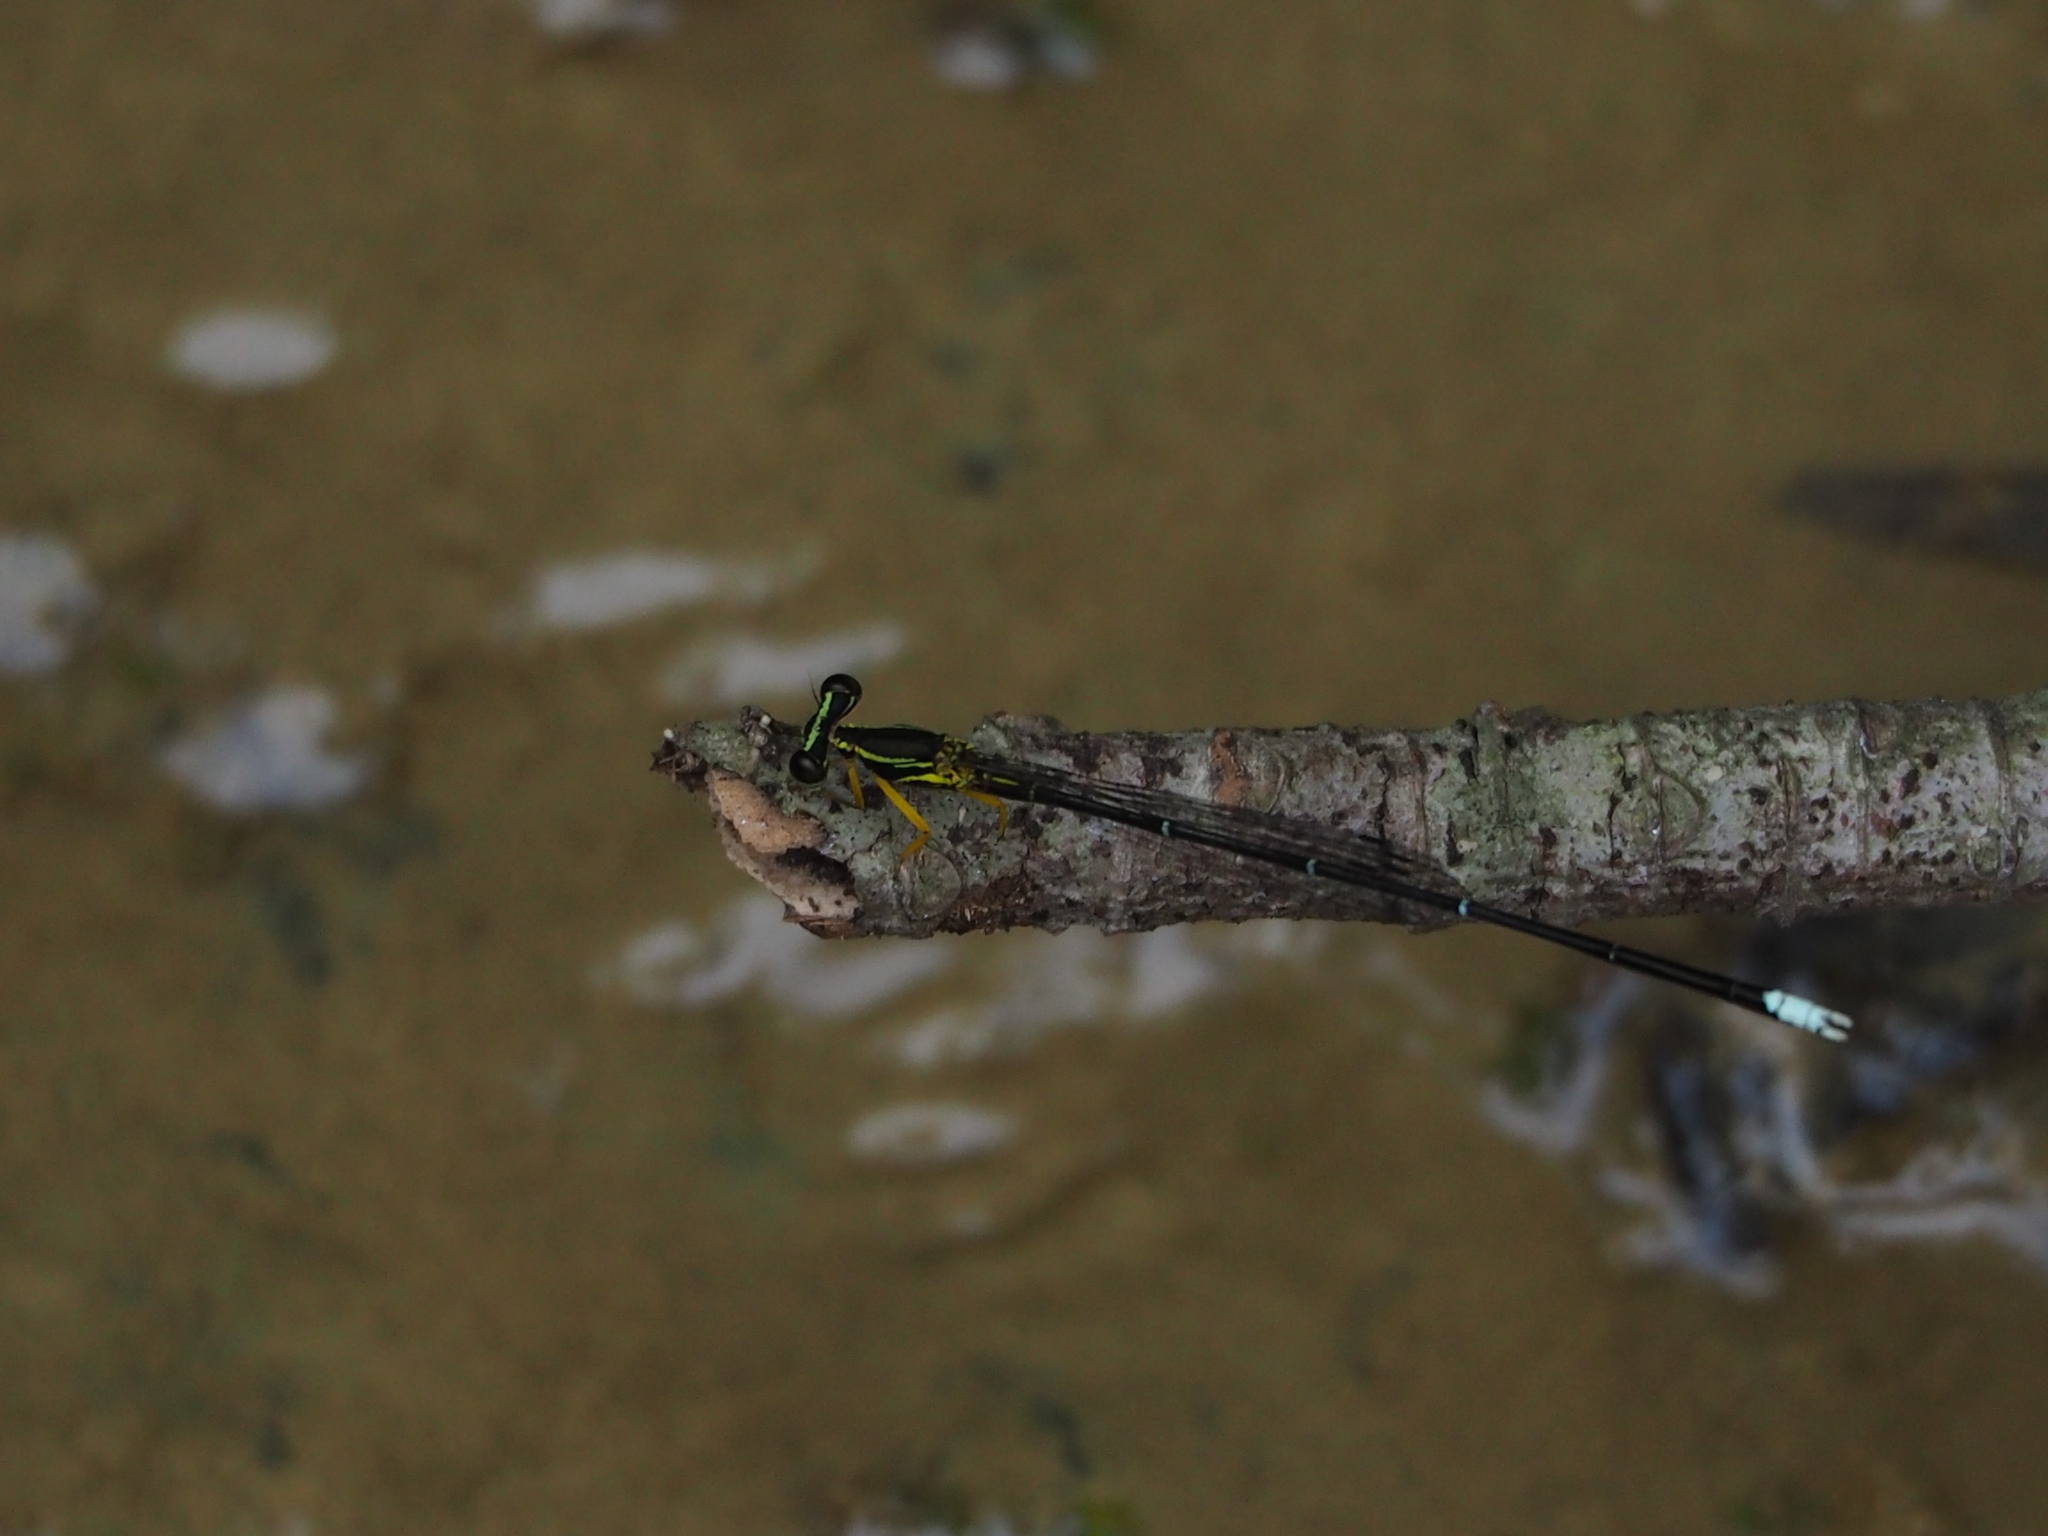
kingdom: Animalia
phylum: Arthropoda
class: Insecta
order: Odonata
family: Platycnemididae
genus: Copera
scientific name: Copera marginipes
